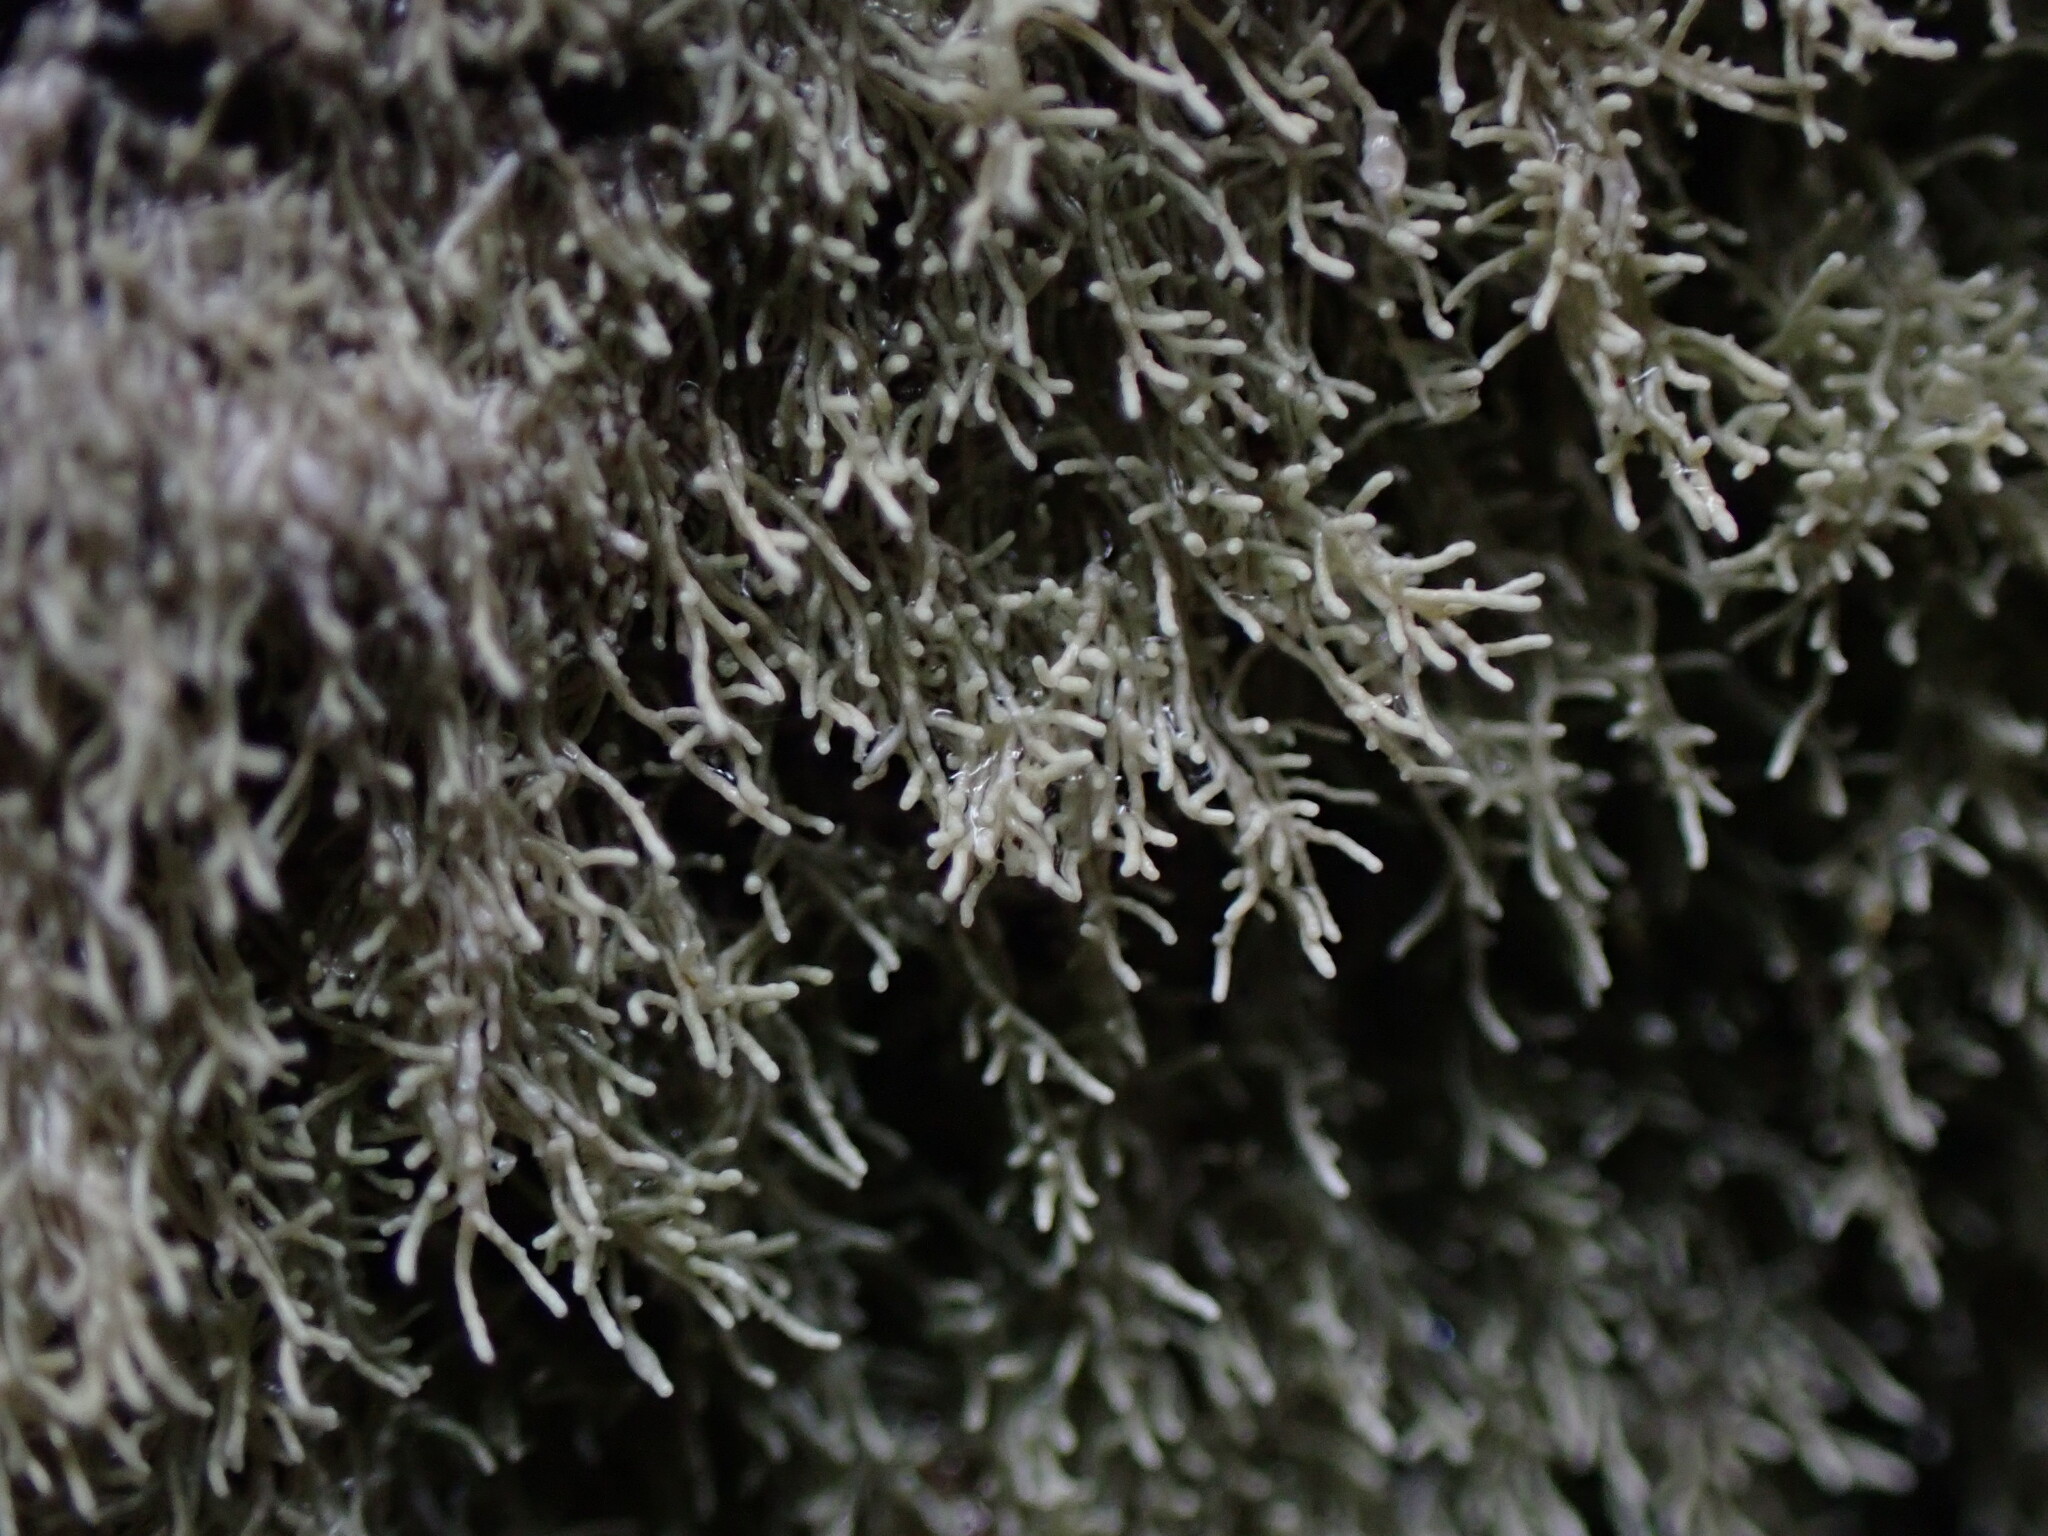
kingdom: Fungi
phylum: Ascomycota
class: Lecanoromycetes
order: Pertusariales
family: Pertusariaceae
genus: Loxosporopsis
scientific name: Loxosporopsis corallifera
